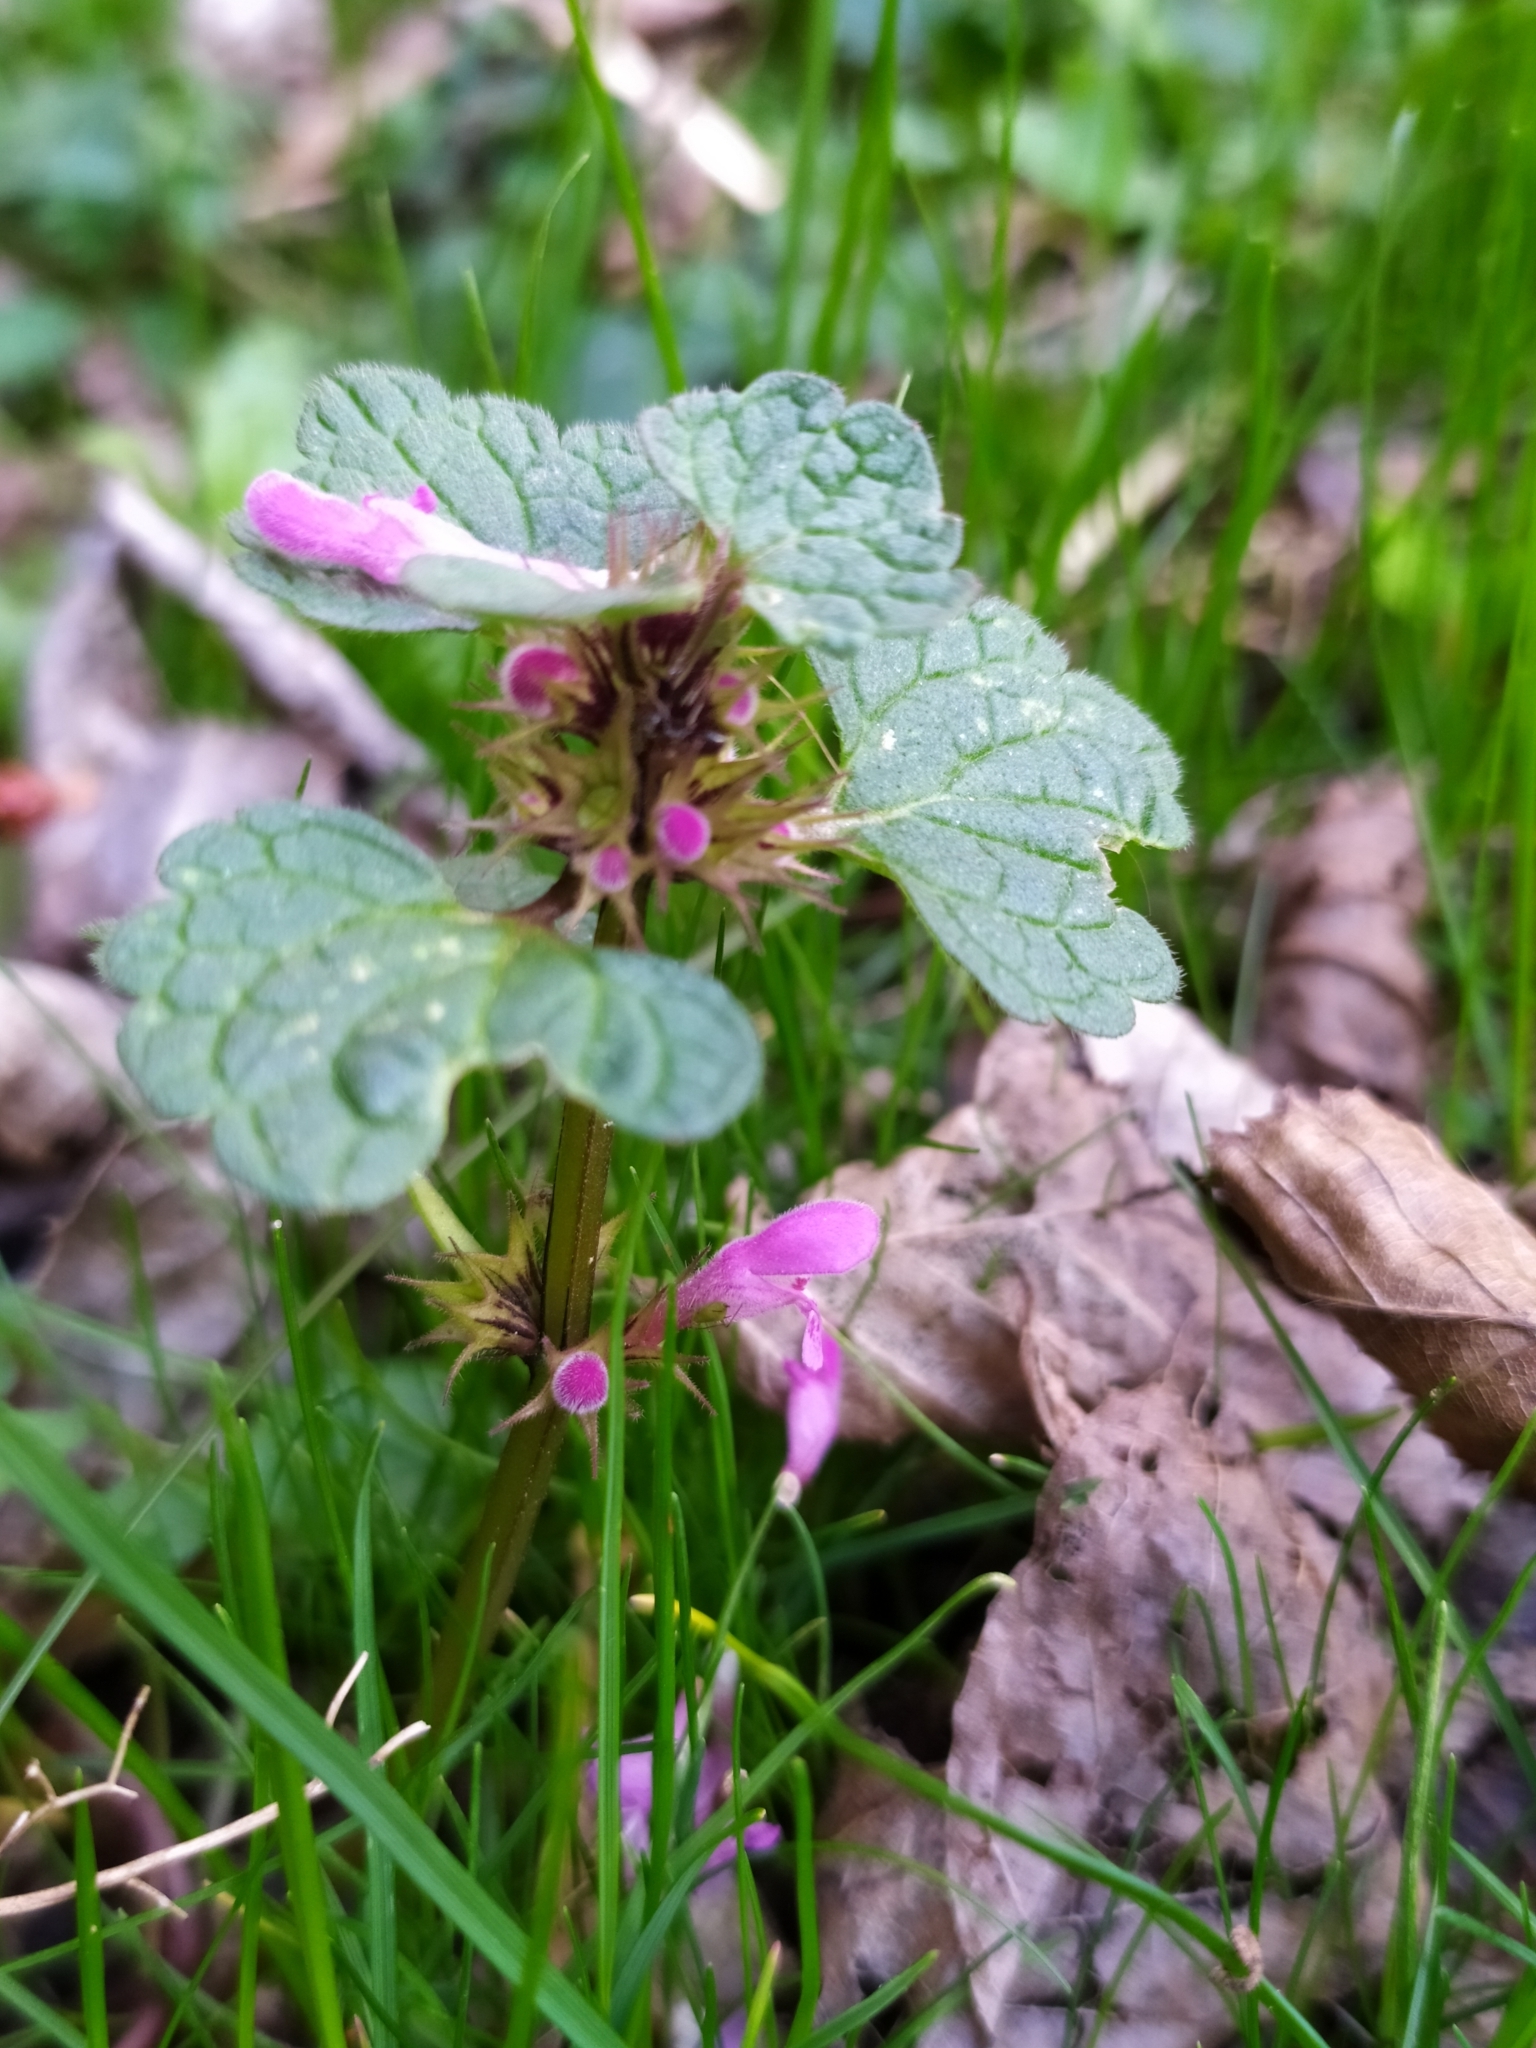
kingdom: Plantae
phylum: Tracheophyta
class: Magnoliopsida
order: Lamiales
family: Lamiaceae
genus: Lamium
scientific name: Lamium purpureum
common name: Red dead-nettle
